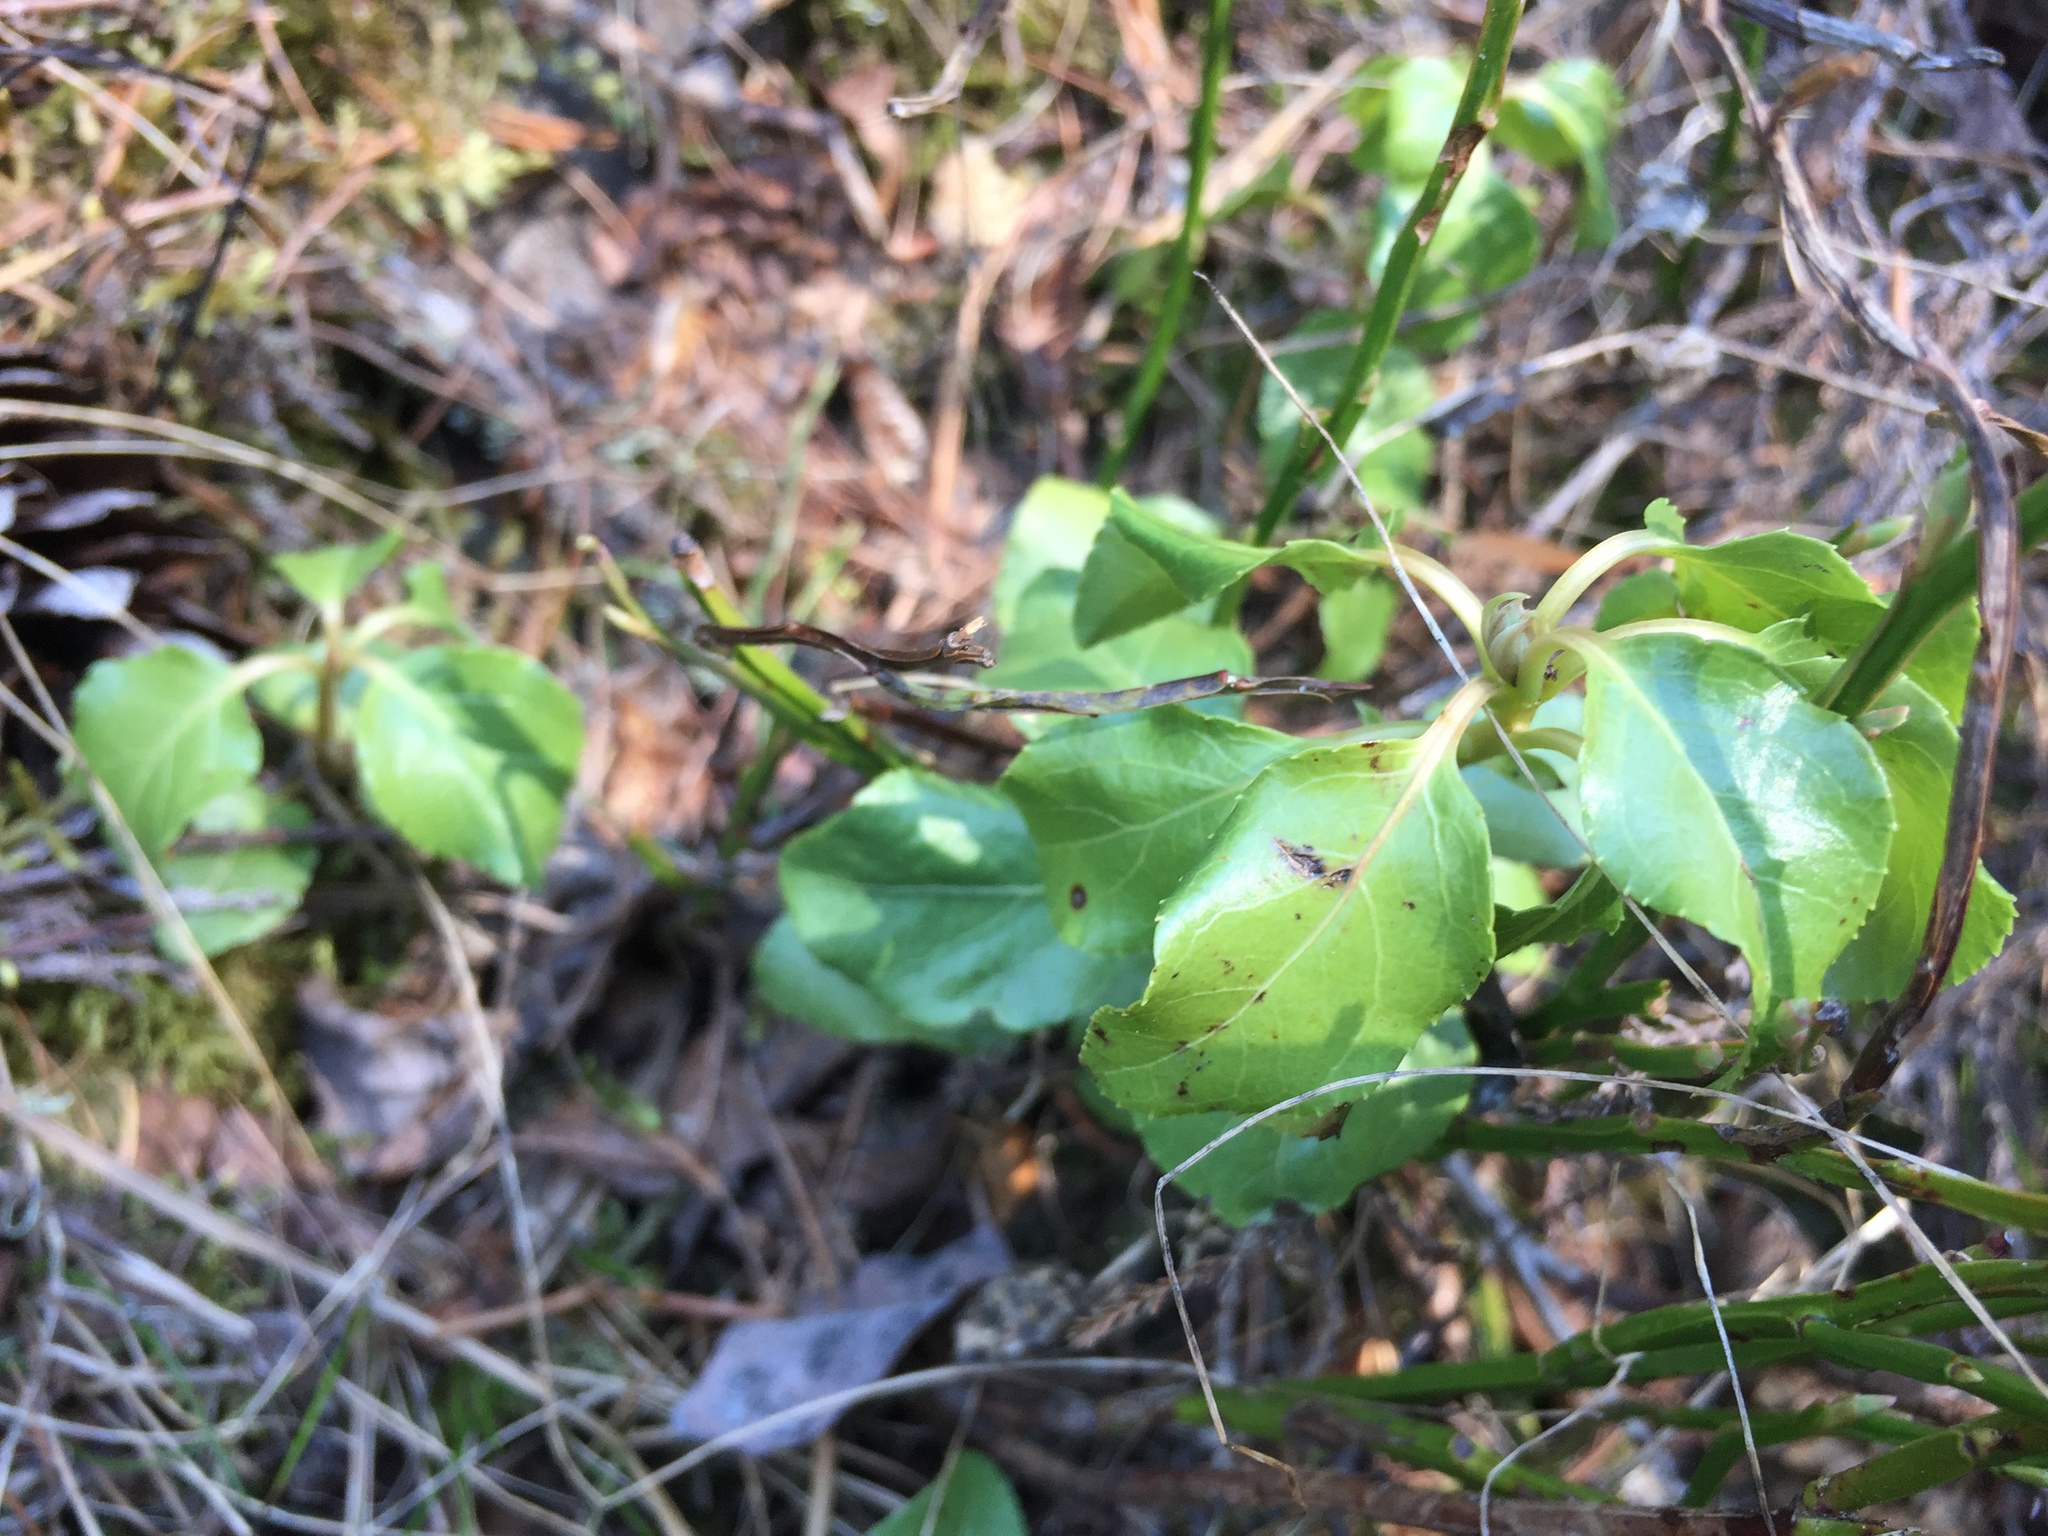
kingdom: Plantae
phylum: Tracheophyta
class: Magnoliopsida
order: Ericales
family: Ericaceae
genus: Orthilia
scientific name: Orthilia secunda
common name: One-sided orthilia
